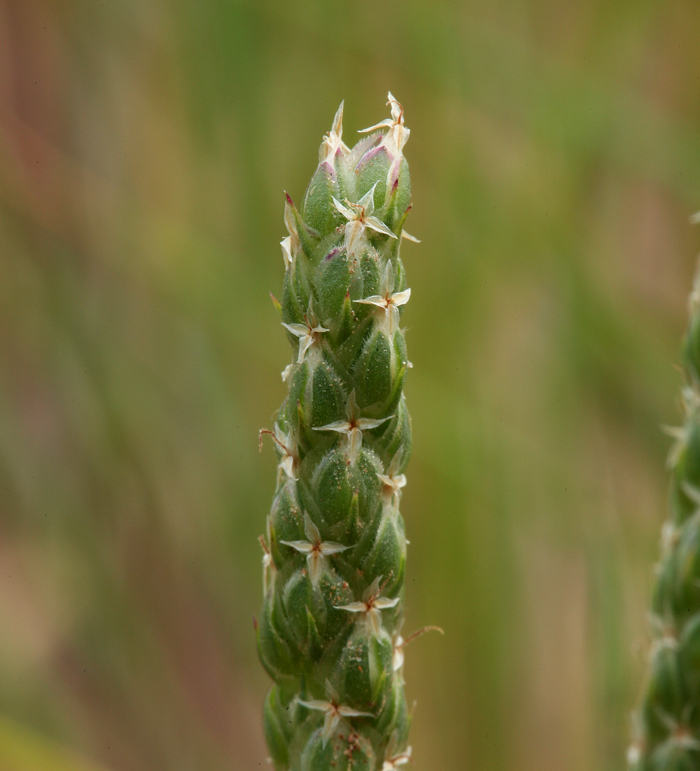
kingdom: Plantae
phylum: Tracheophyta
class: Magnoliopsida
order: Lamiales
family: Plantaginaceae
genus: Plantago
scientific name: Plantago coronopus
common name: Buck's-horn plantain
